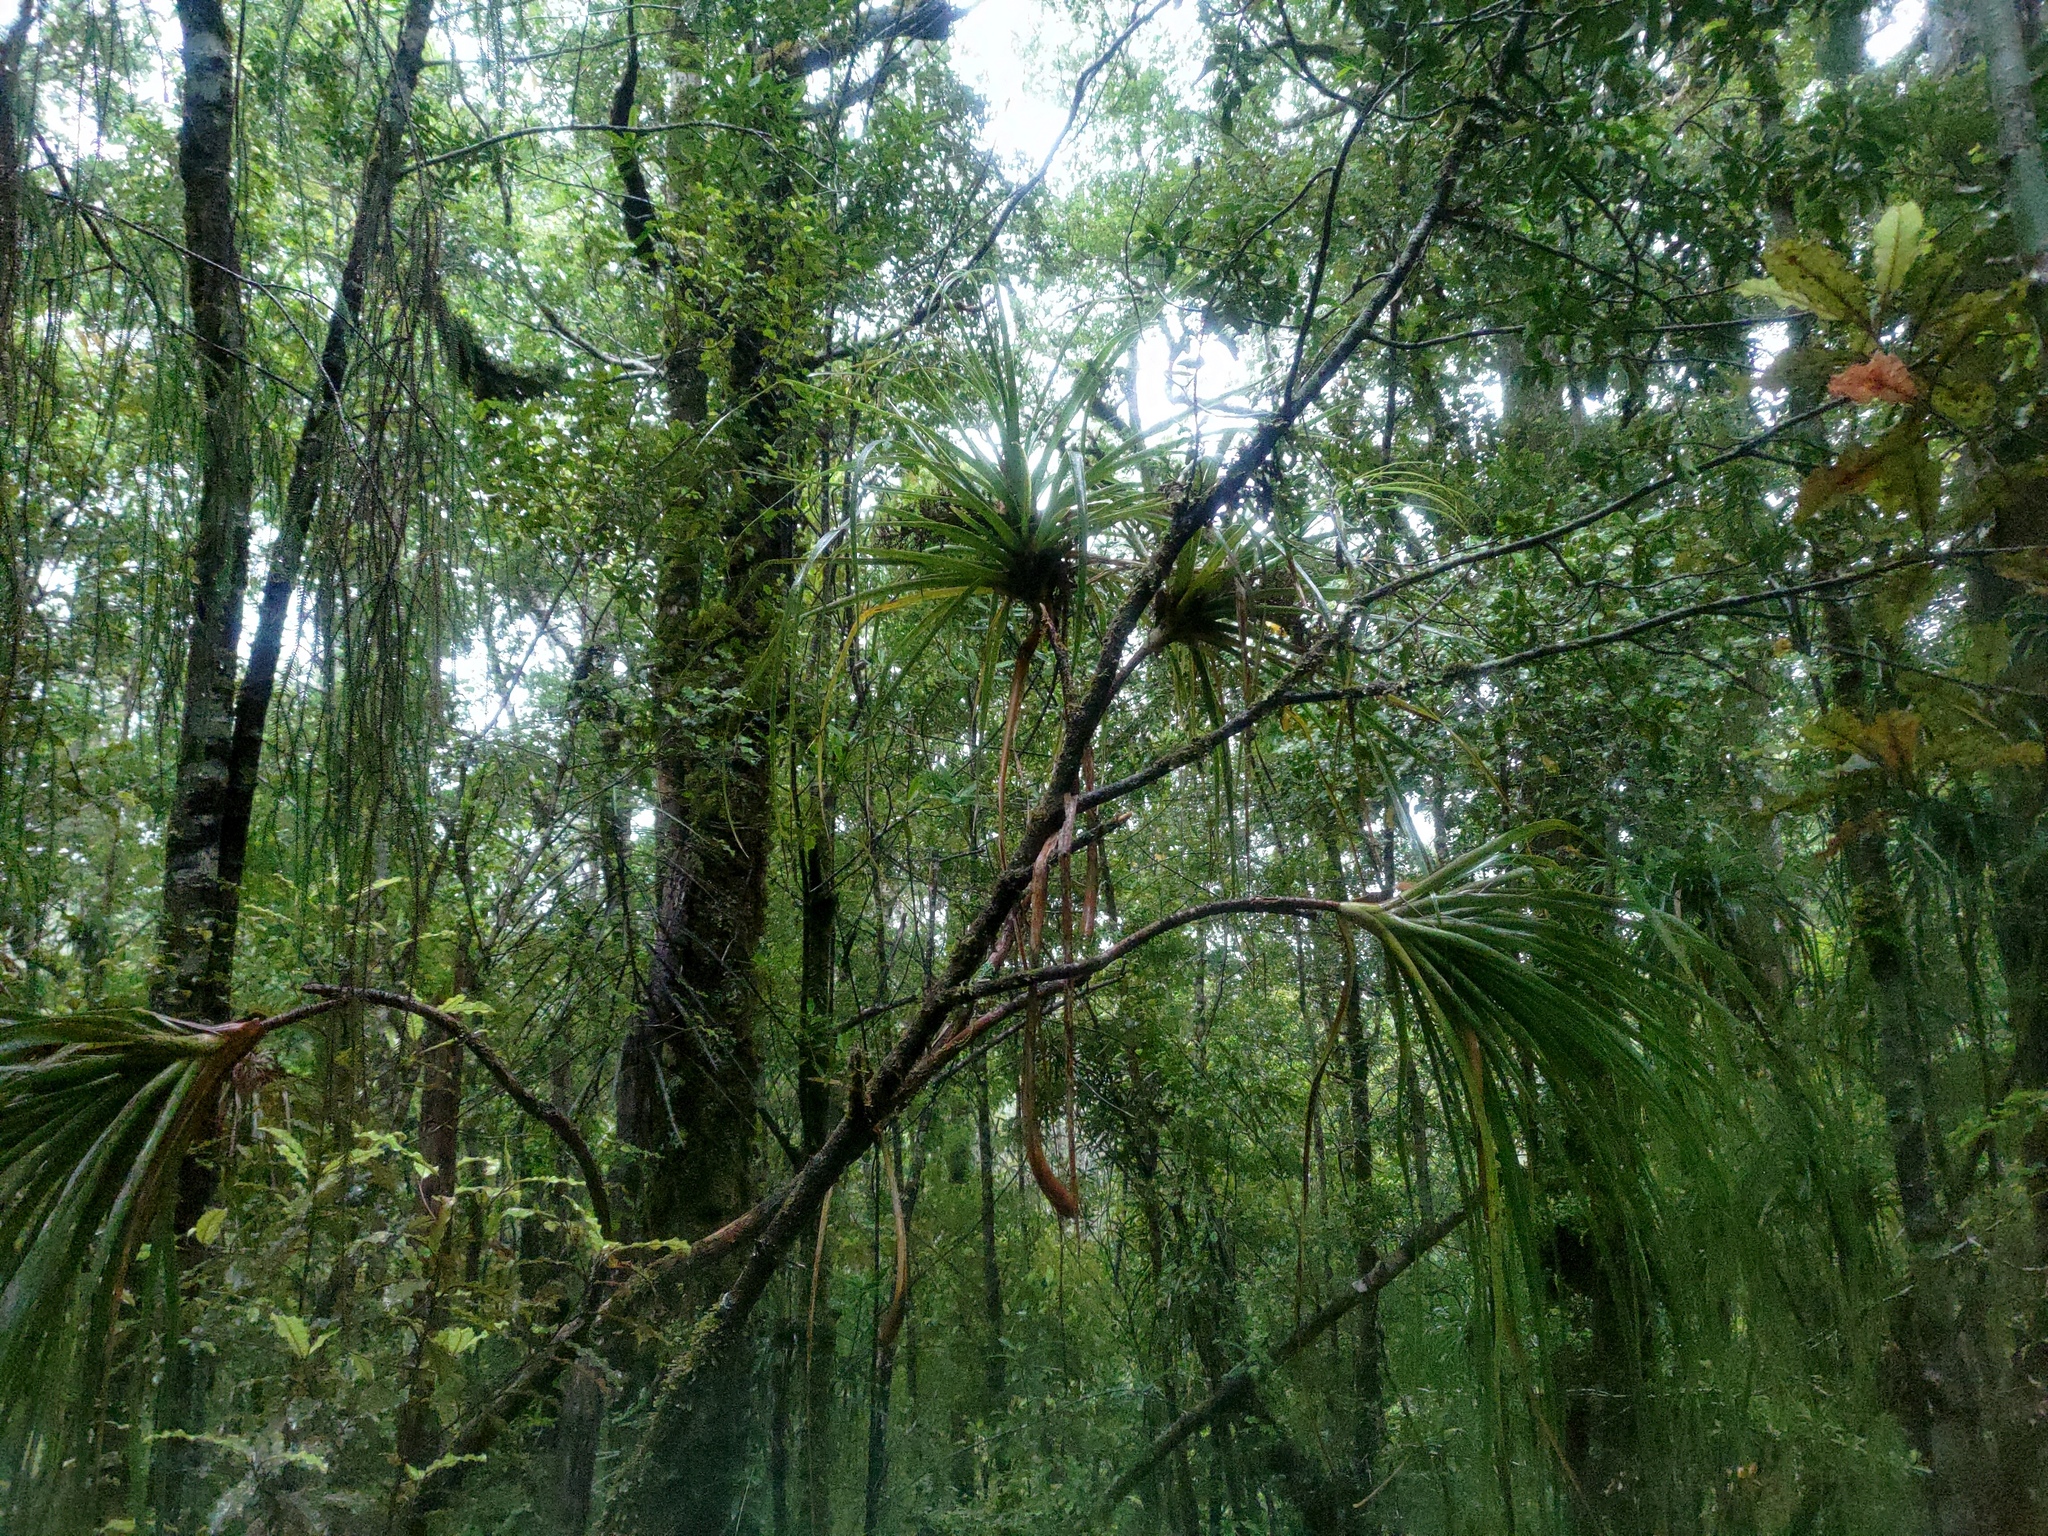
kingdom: Plantae
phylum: Tracheophyta
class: Magnoliopsida
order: Ericales
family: Ericaceae
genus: Dracophyllum
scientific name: Dracophyllum elegantissimum
